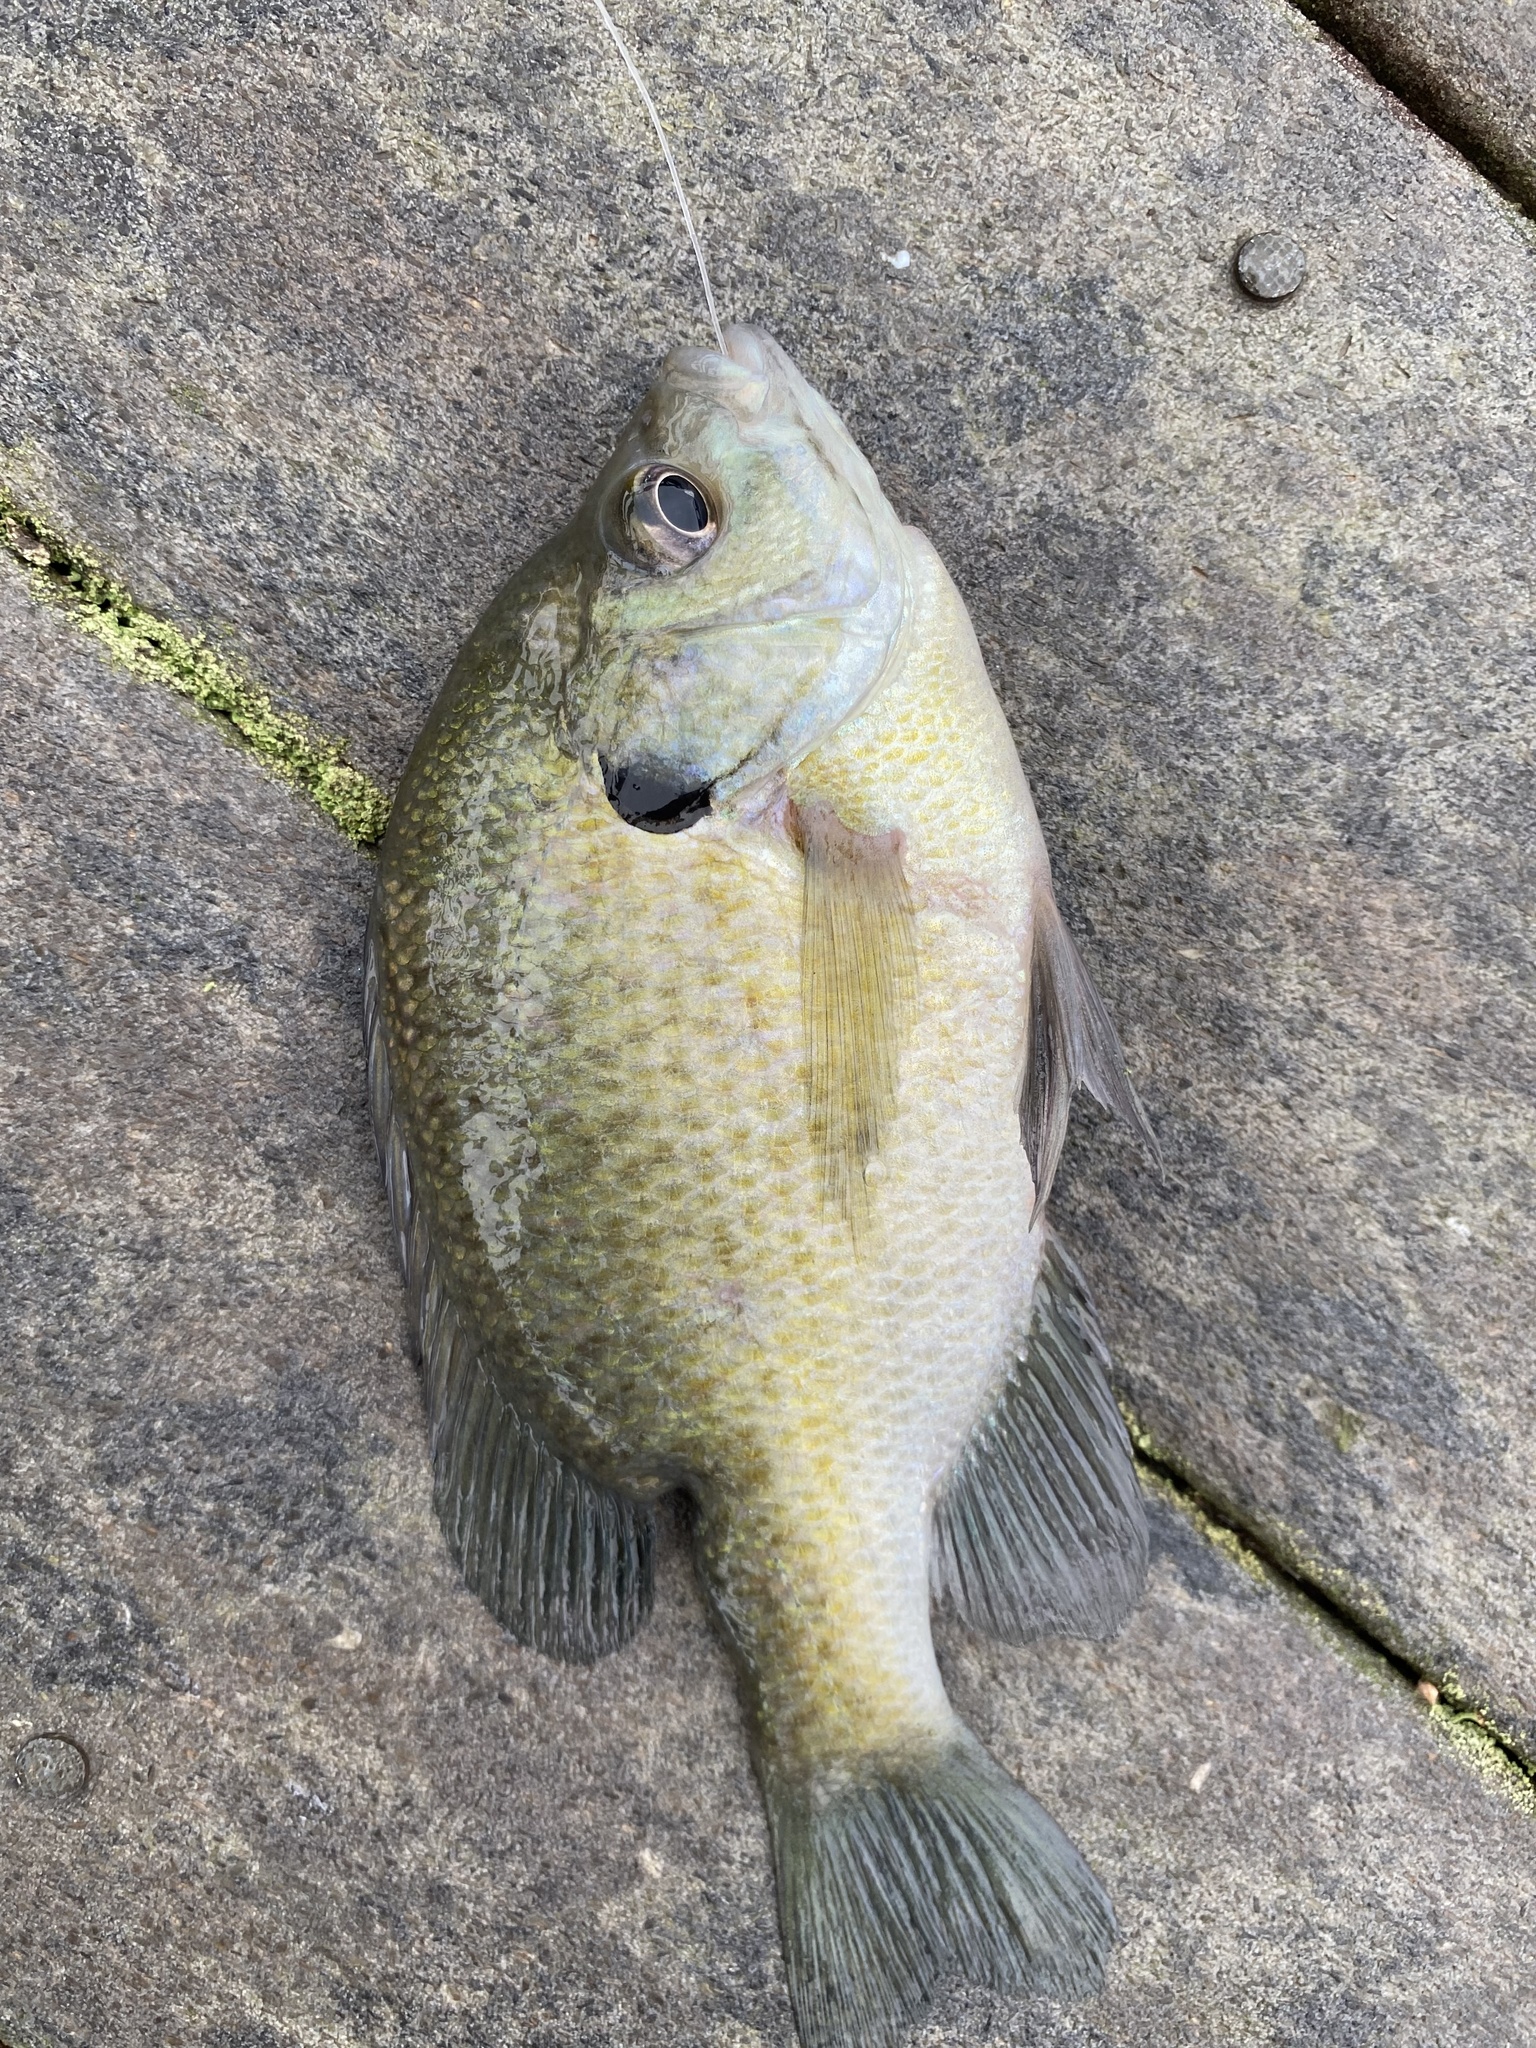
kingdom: Animalia
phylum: Chordata
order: Perciformes
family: Centrarchidae
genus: Lepomis
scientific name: Lepomis macrochirus
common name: Bluegill
